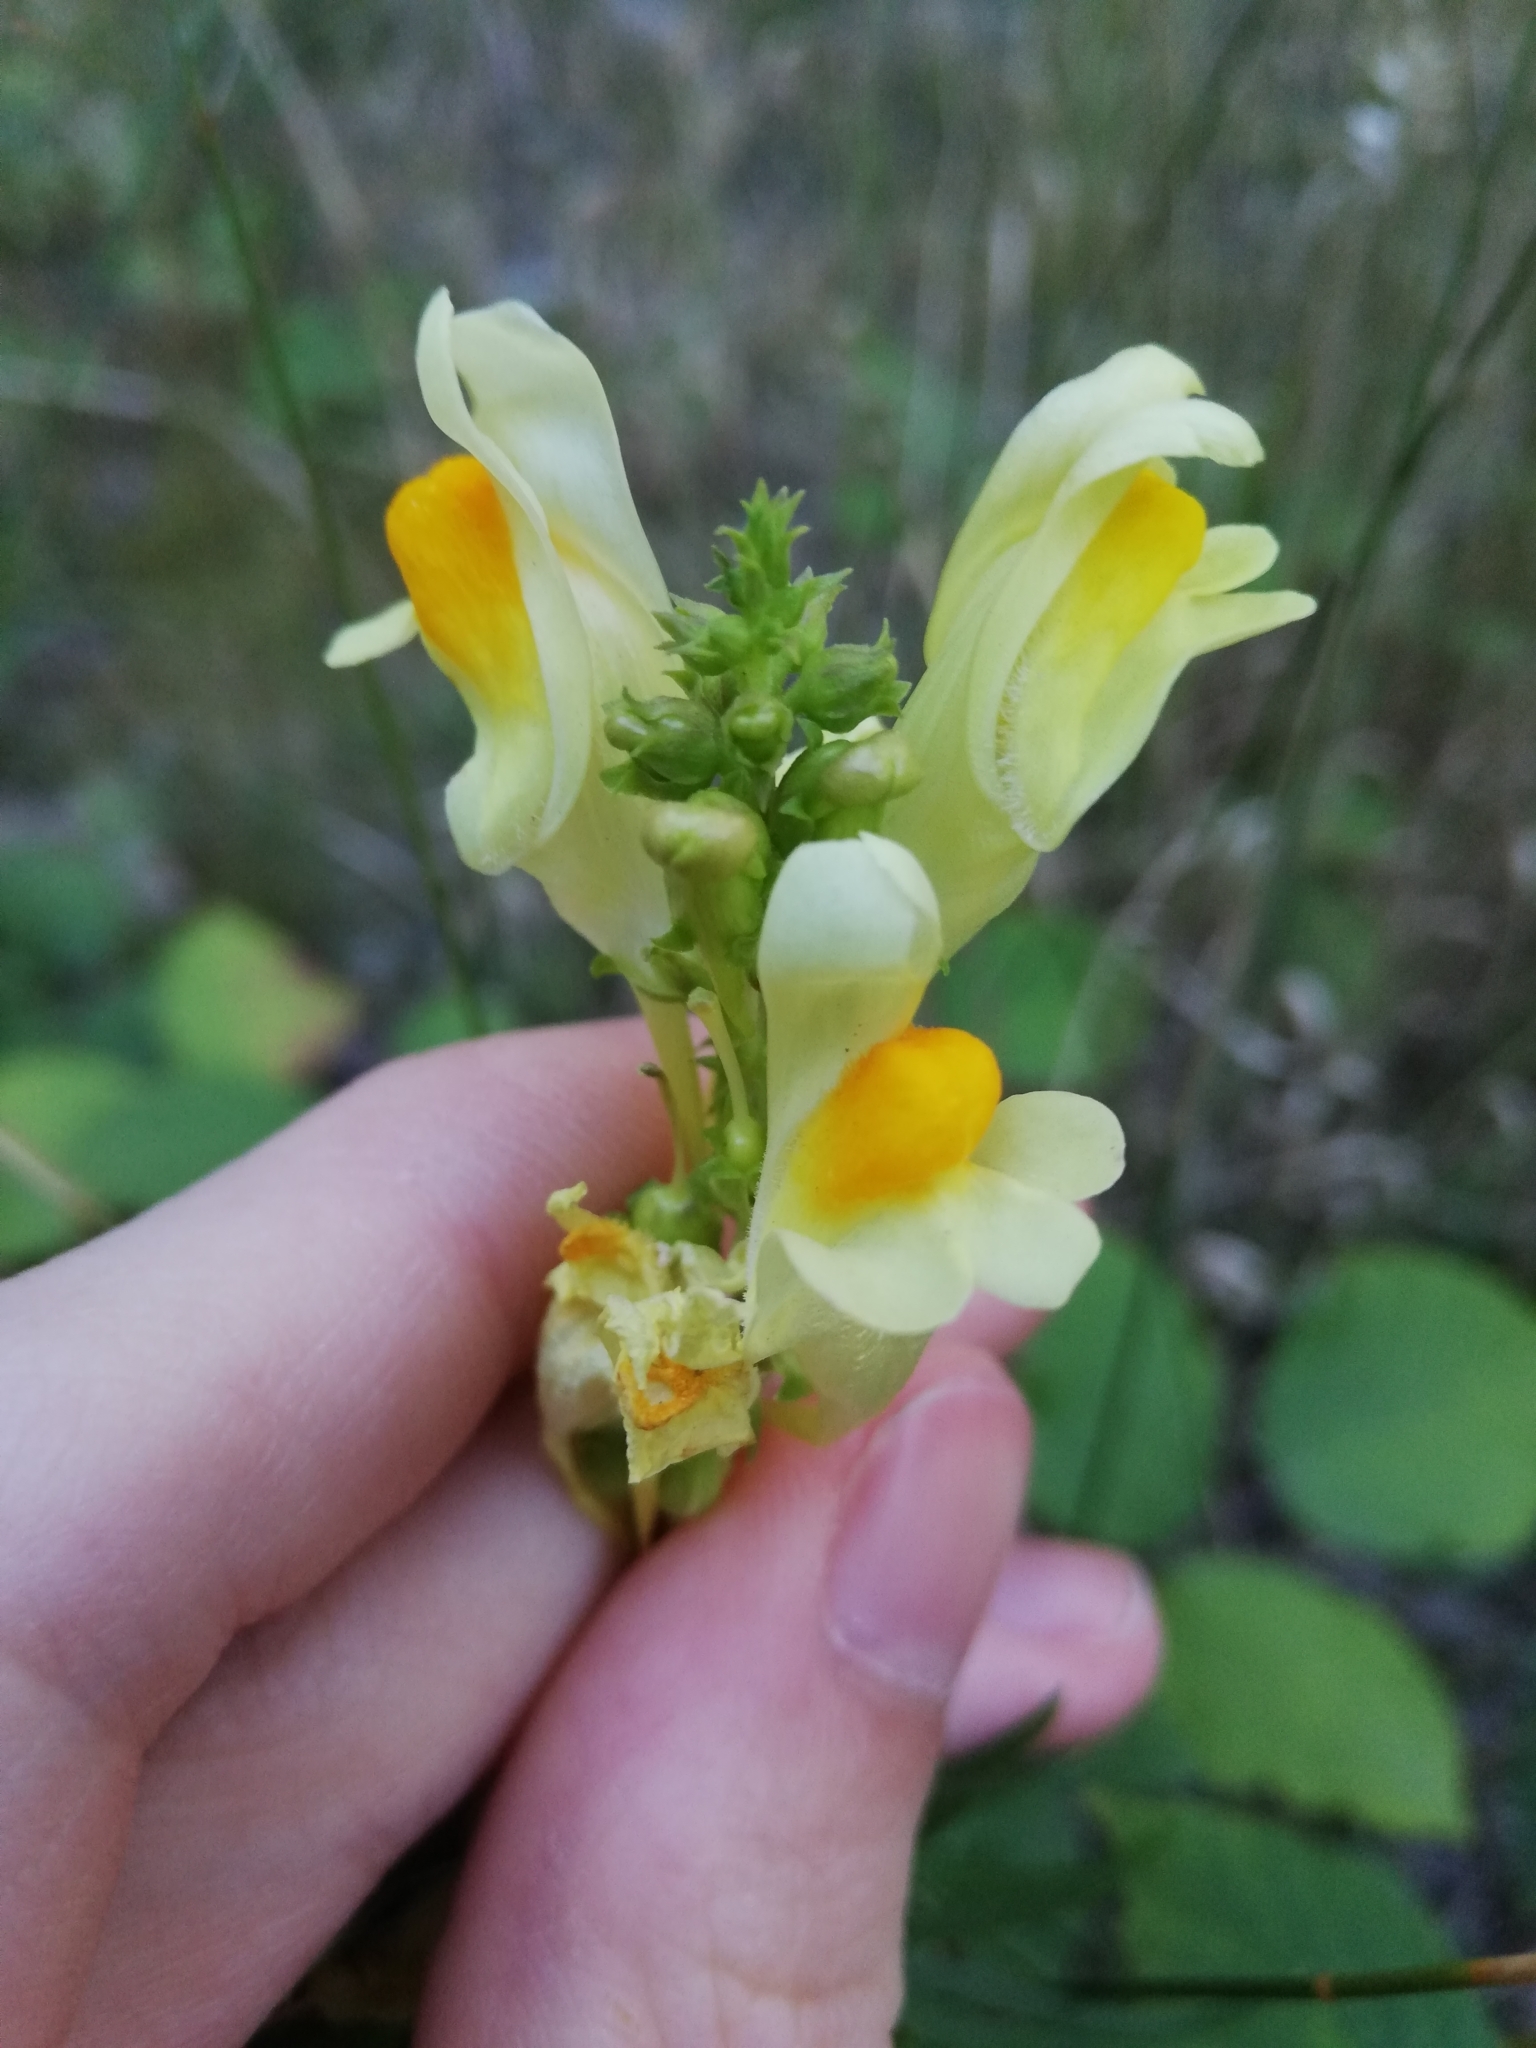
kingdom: Plantae
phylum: Tracheophyta
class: Magnoliopsida
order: Lamiales
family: Plantaginaceae
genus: Linaria
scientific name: Linaria vulgaris
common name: Butter and eggs
